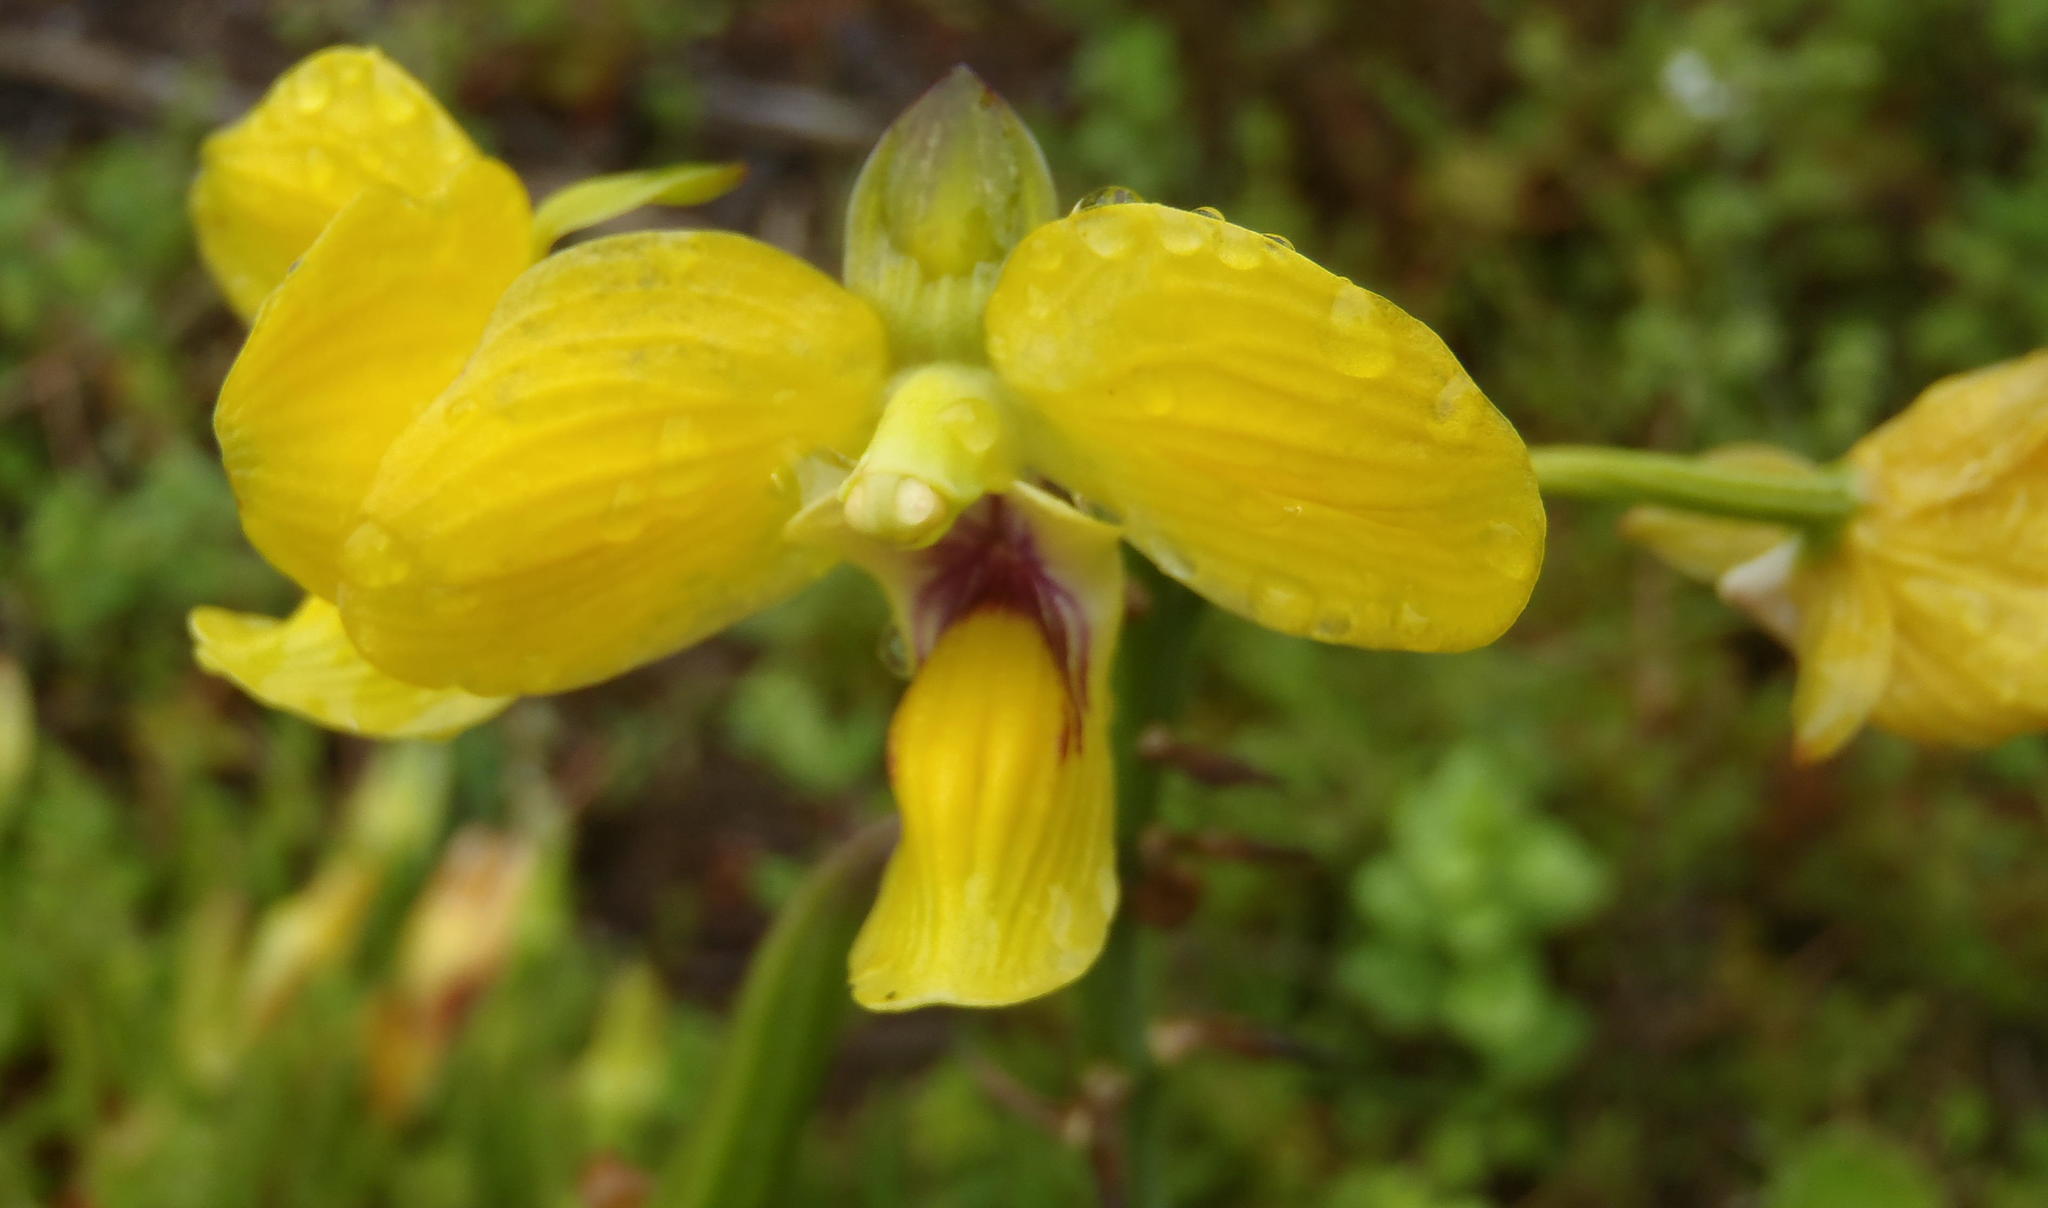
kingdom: Plantae
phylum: Tracheophyta
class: Liliopsida
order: Asparagales
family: Orchidaceae
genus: Eulophia
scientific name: Eulophia speciosa
